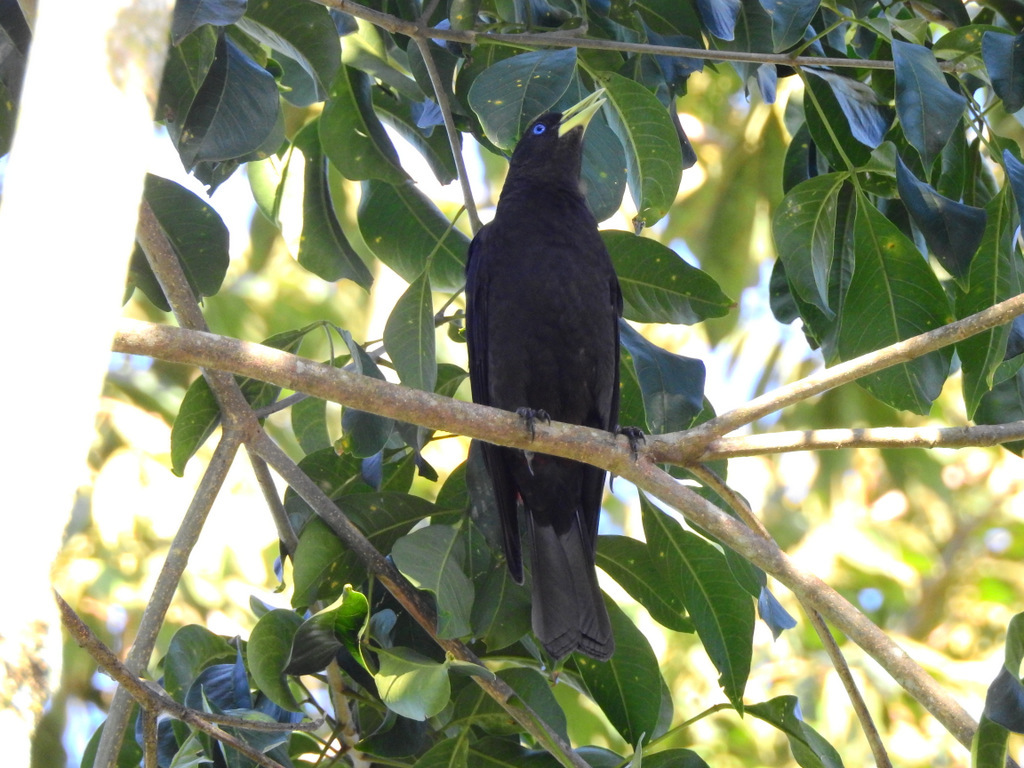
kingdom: Animalia
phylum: Chordata
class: Aves
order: Passeriformes
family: Icteridae
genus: Cacicus
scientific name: Cacicus haemorrhous
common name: Red-rumped cacique
